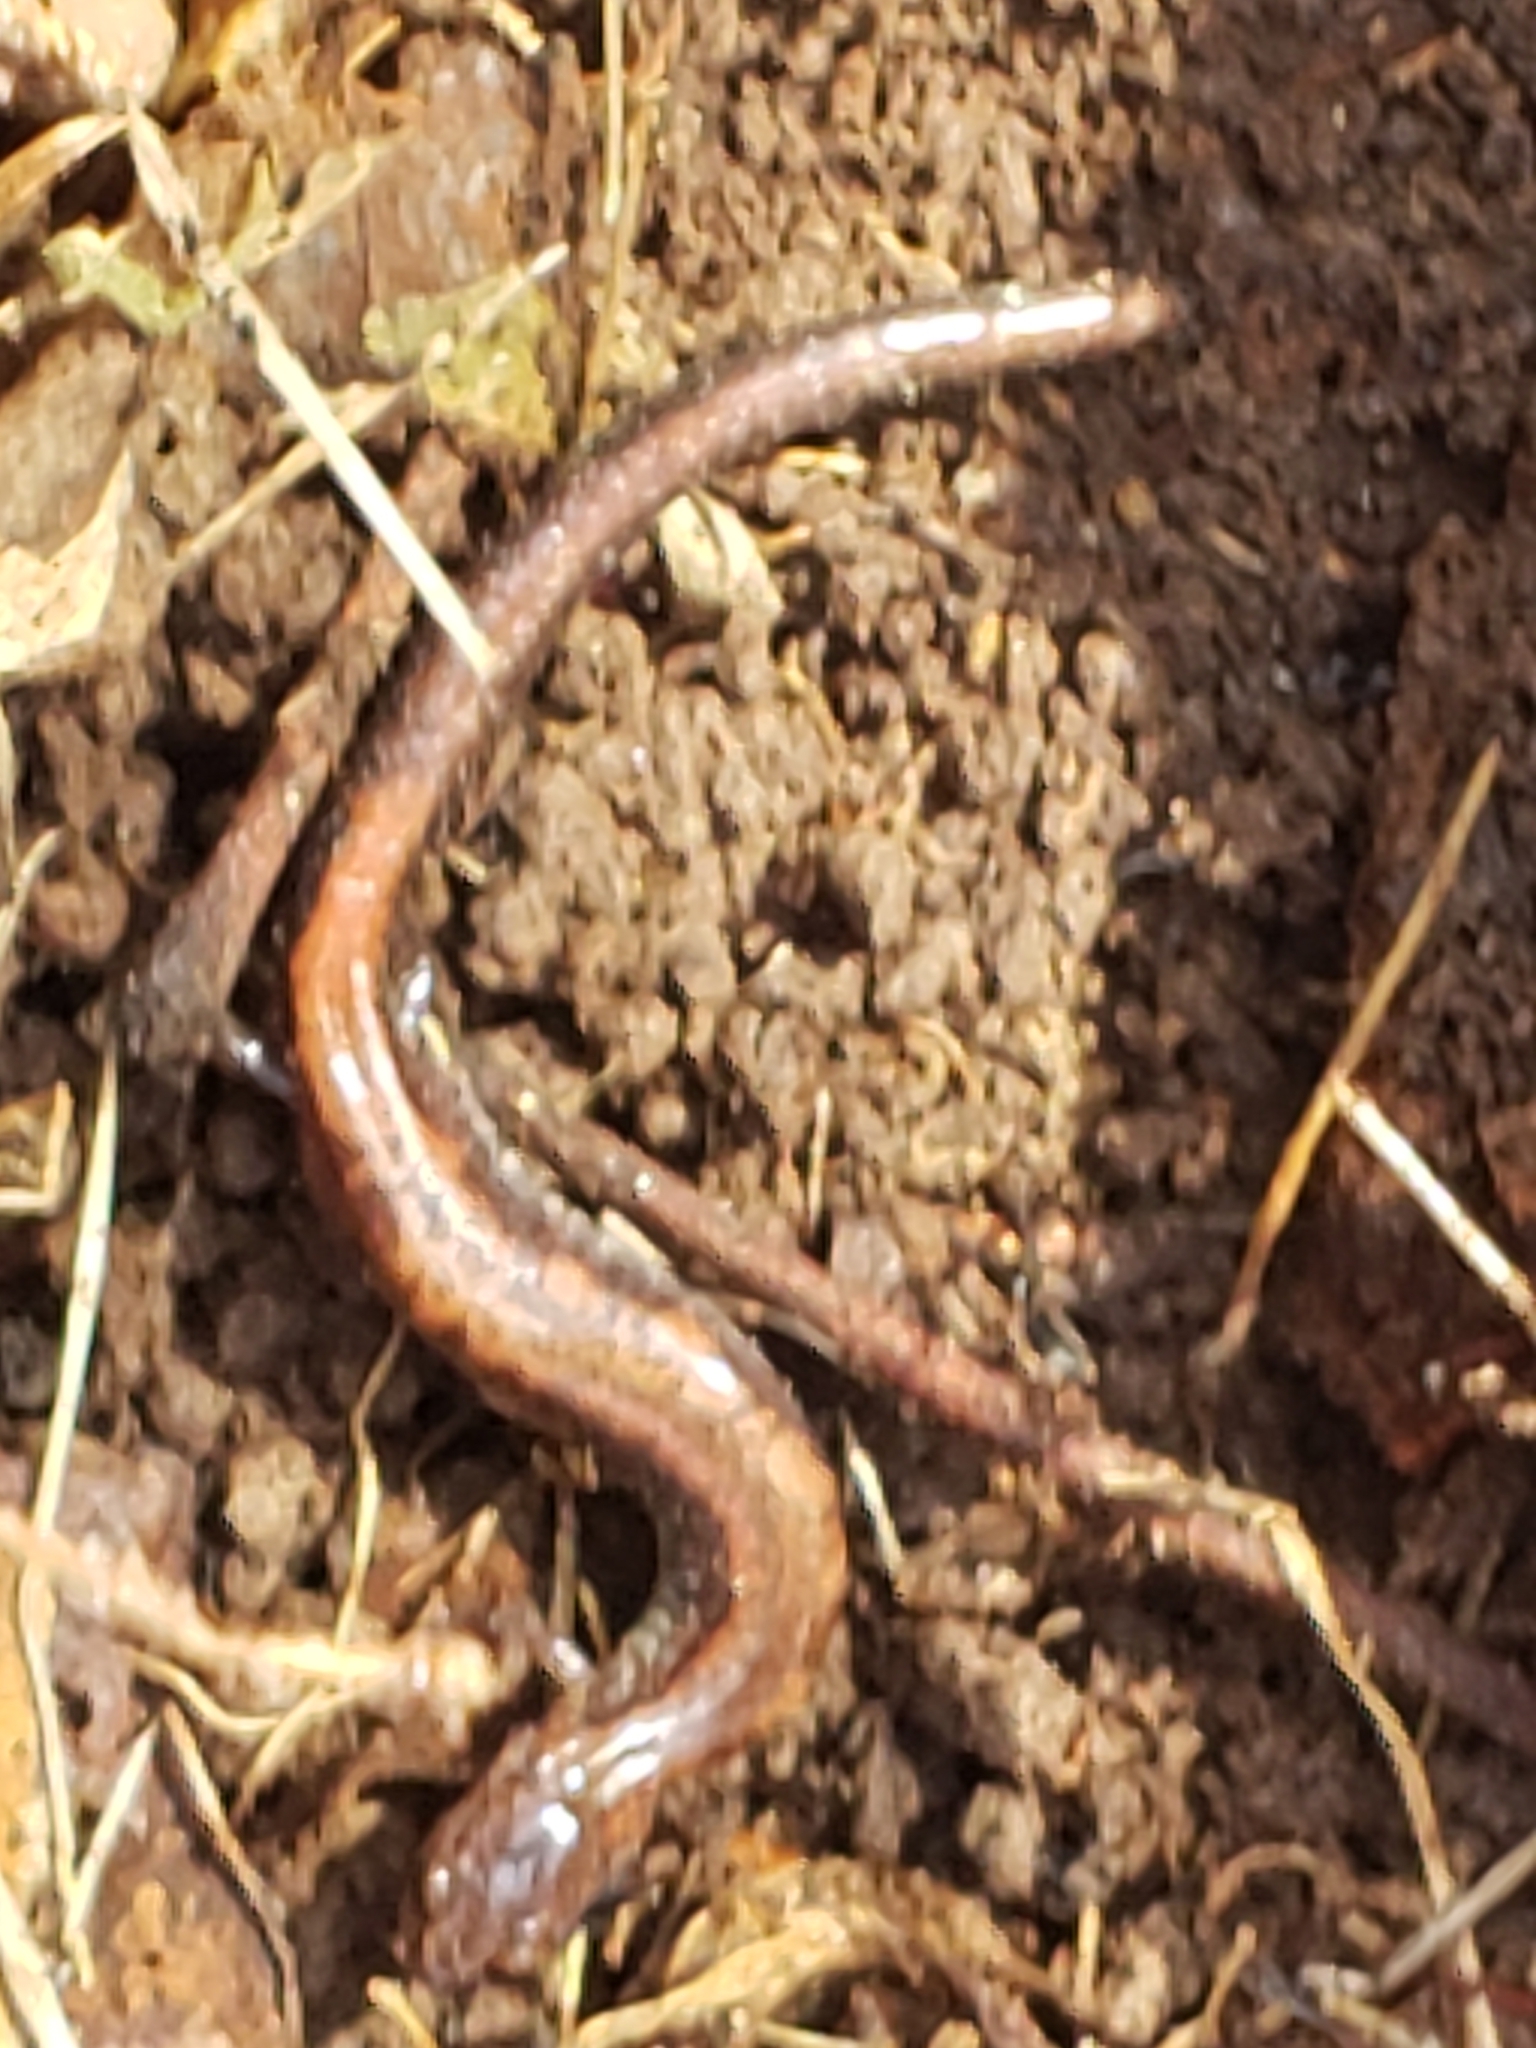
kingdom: Animalia
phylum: Chordata
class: Amphibia
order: Caudata
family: Plethodontidae
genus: Plethodon
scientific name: Plethodon cinereus
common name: Redback salamander
